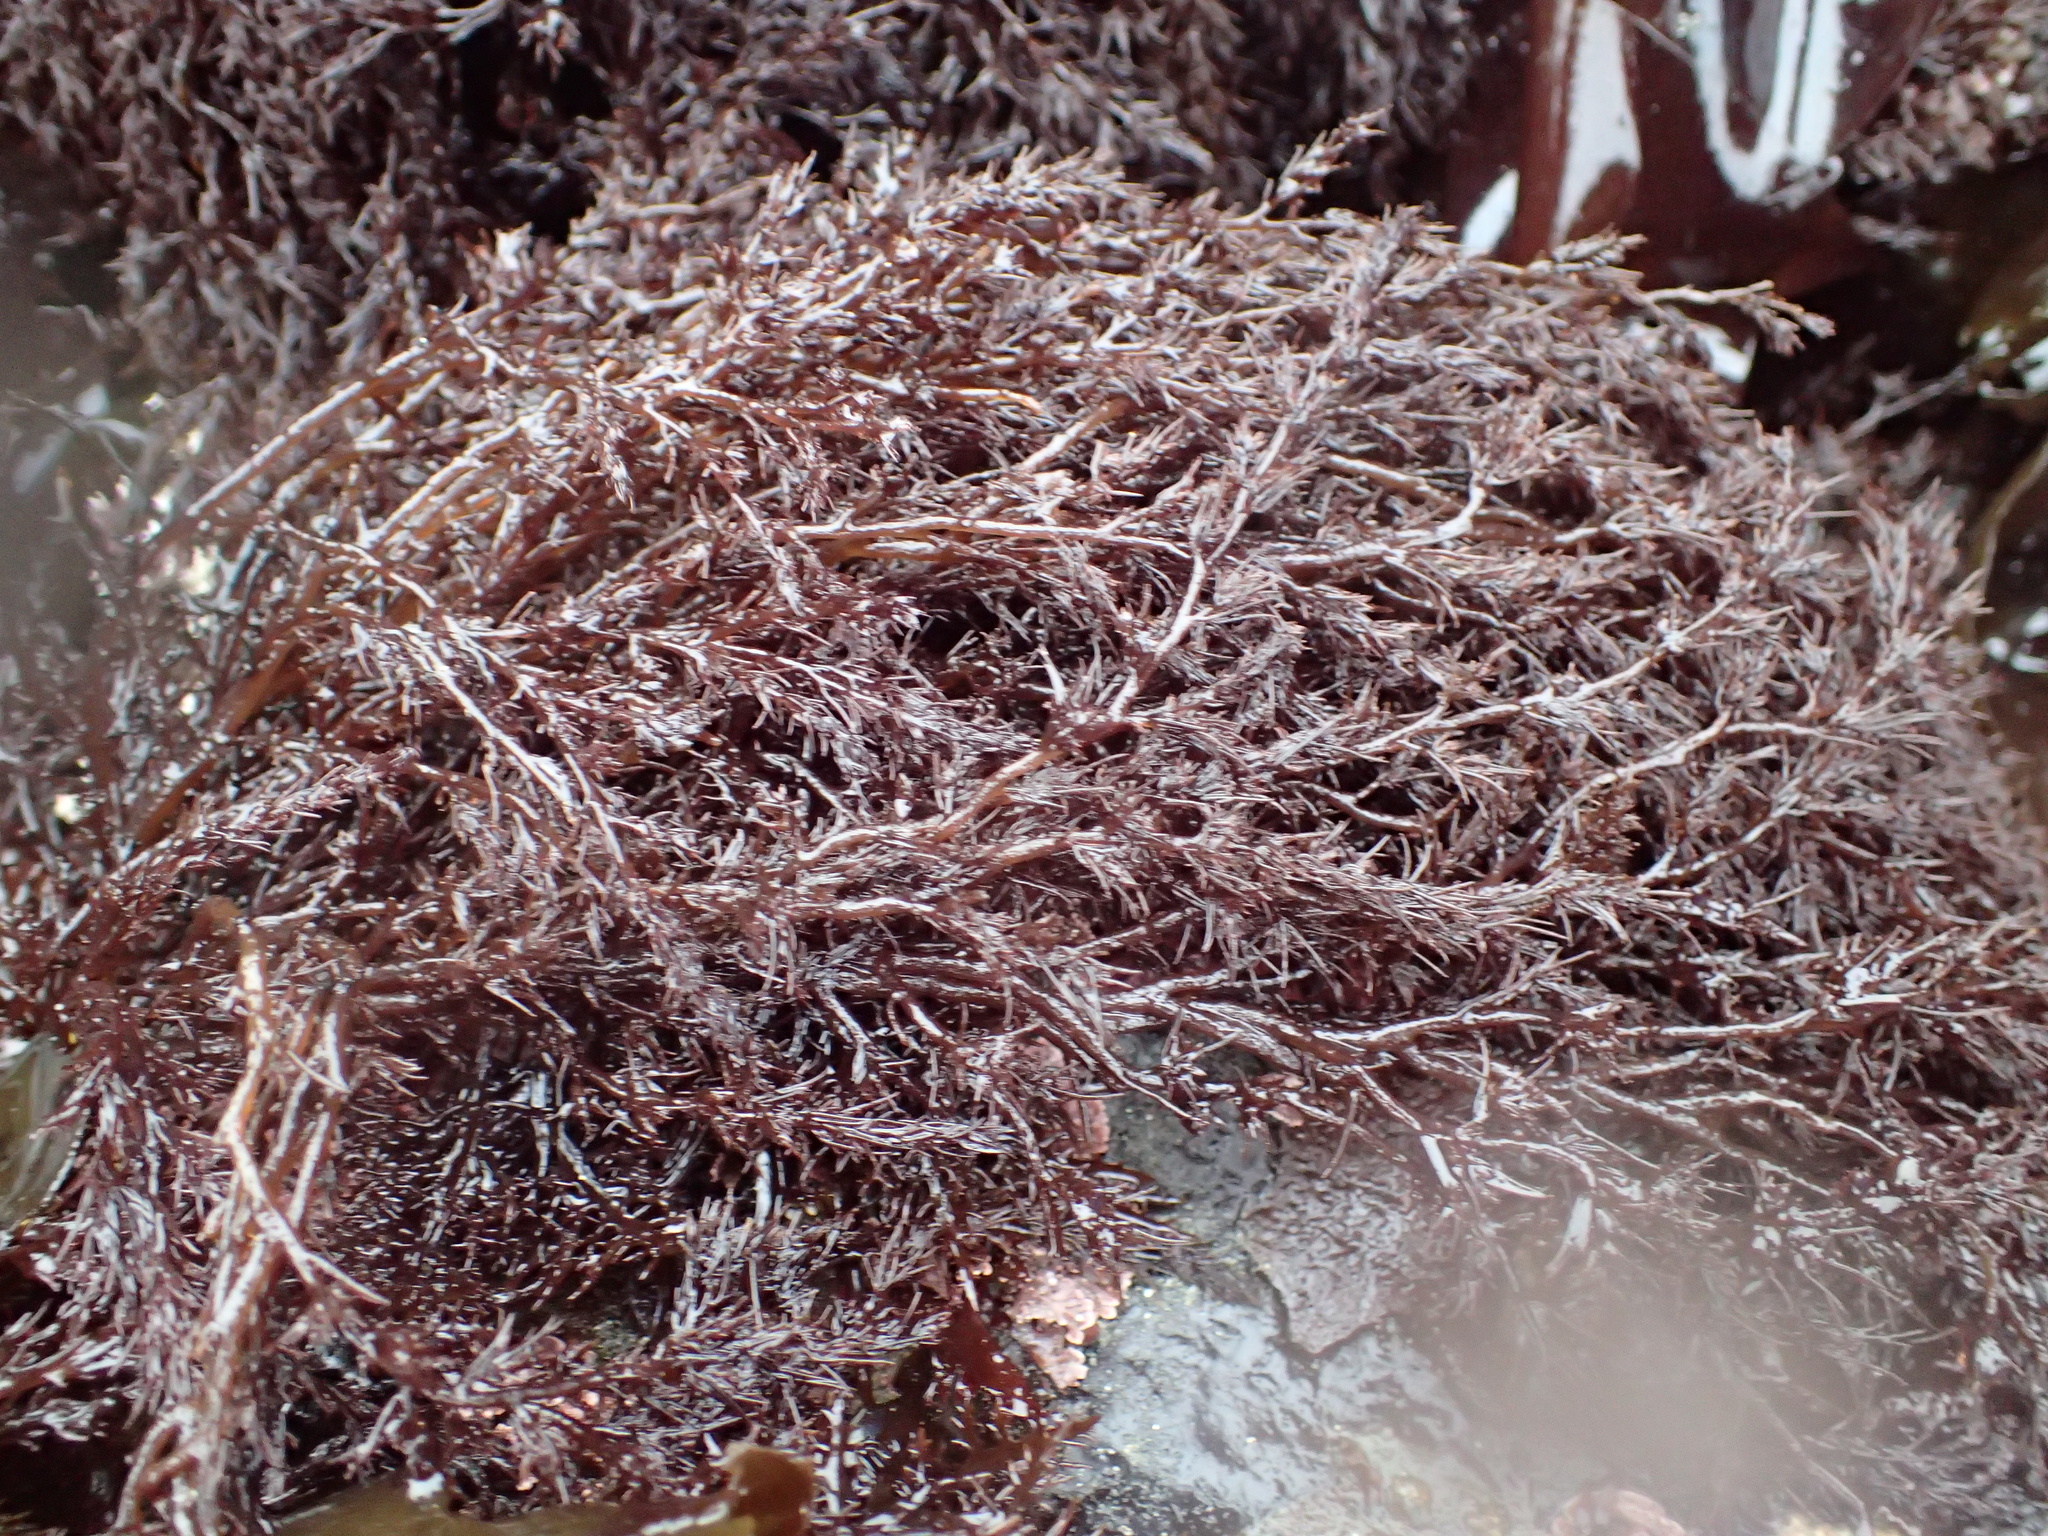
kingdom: Plantae
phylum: Rhodophyta
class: Florideophyceae
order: Ceramiales
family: Rhodomelaceae
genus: Odonthalia
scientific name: Odonthalia floccosa
